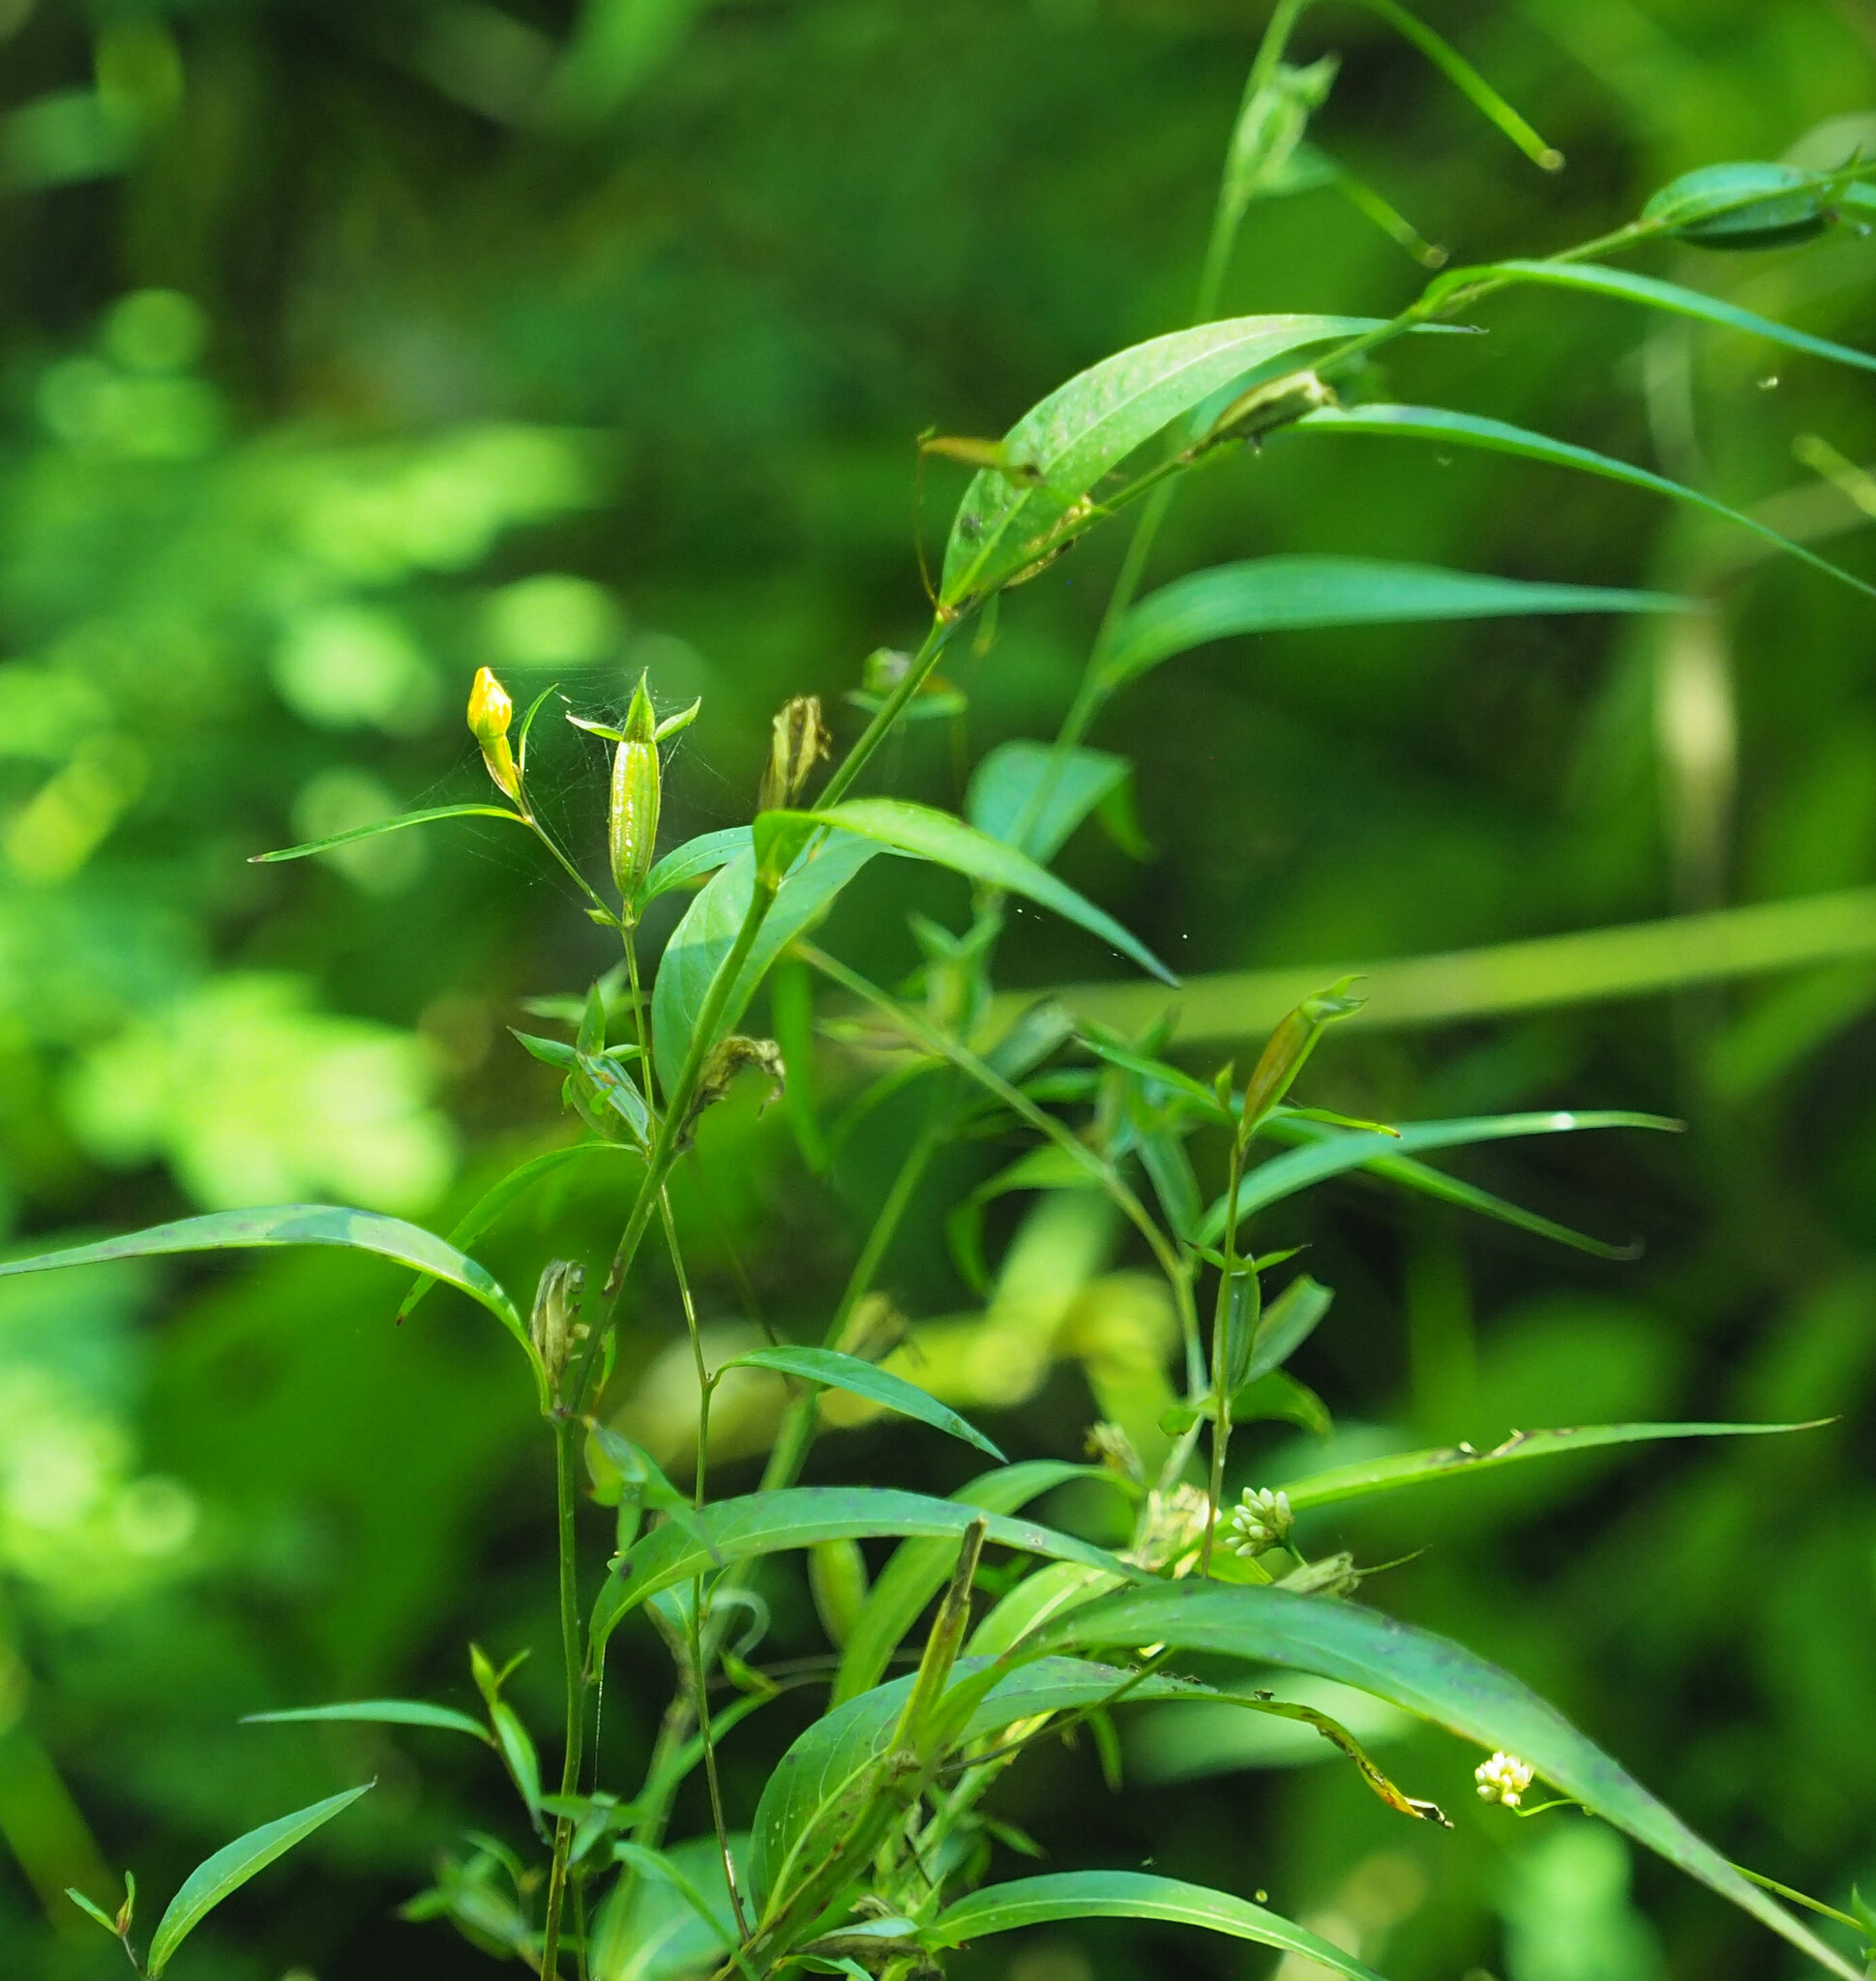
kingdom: Plantae
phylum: Tracheophyta
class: Magnoliopsida
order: Myrtales
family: Onagraceae
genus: Ludwigia
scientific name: Ludwigia decurrens
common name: Winged water-primrose
